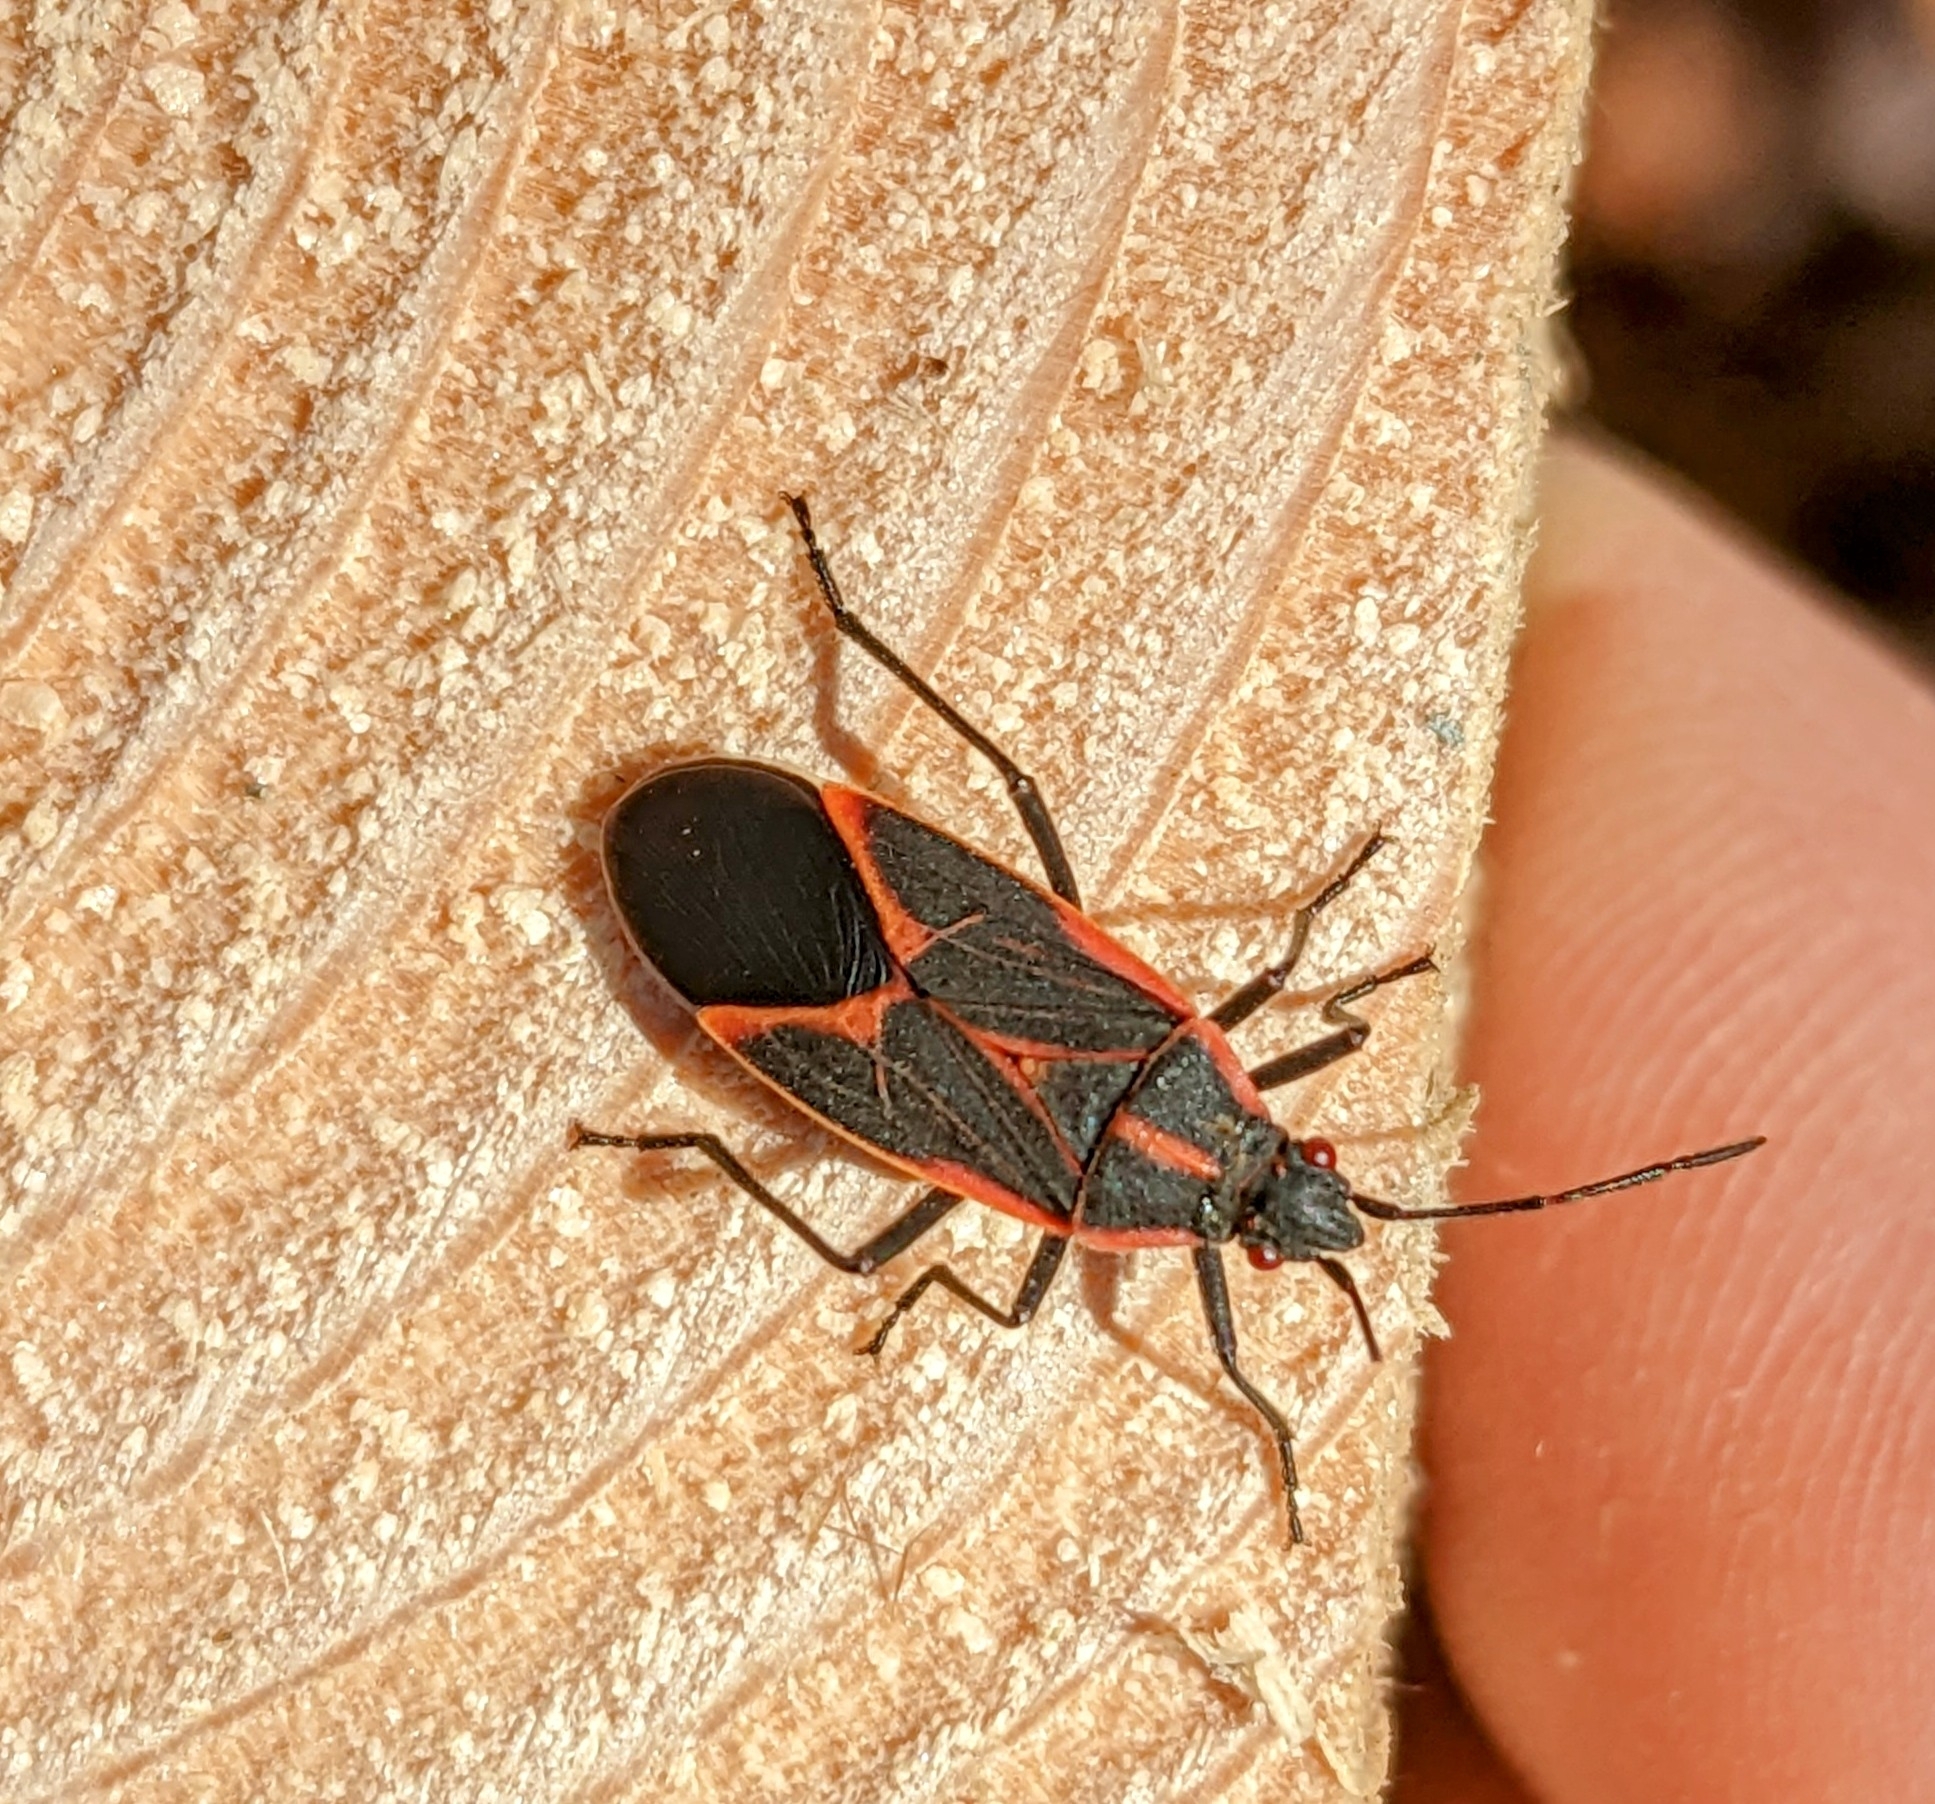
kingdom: Animalia
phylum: Arthropoda
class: Insecta
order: Hemiptera
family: Rhopalidae
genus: Boisea
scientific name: Boisea trivittata
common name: Boxelder bug
